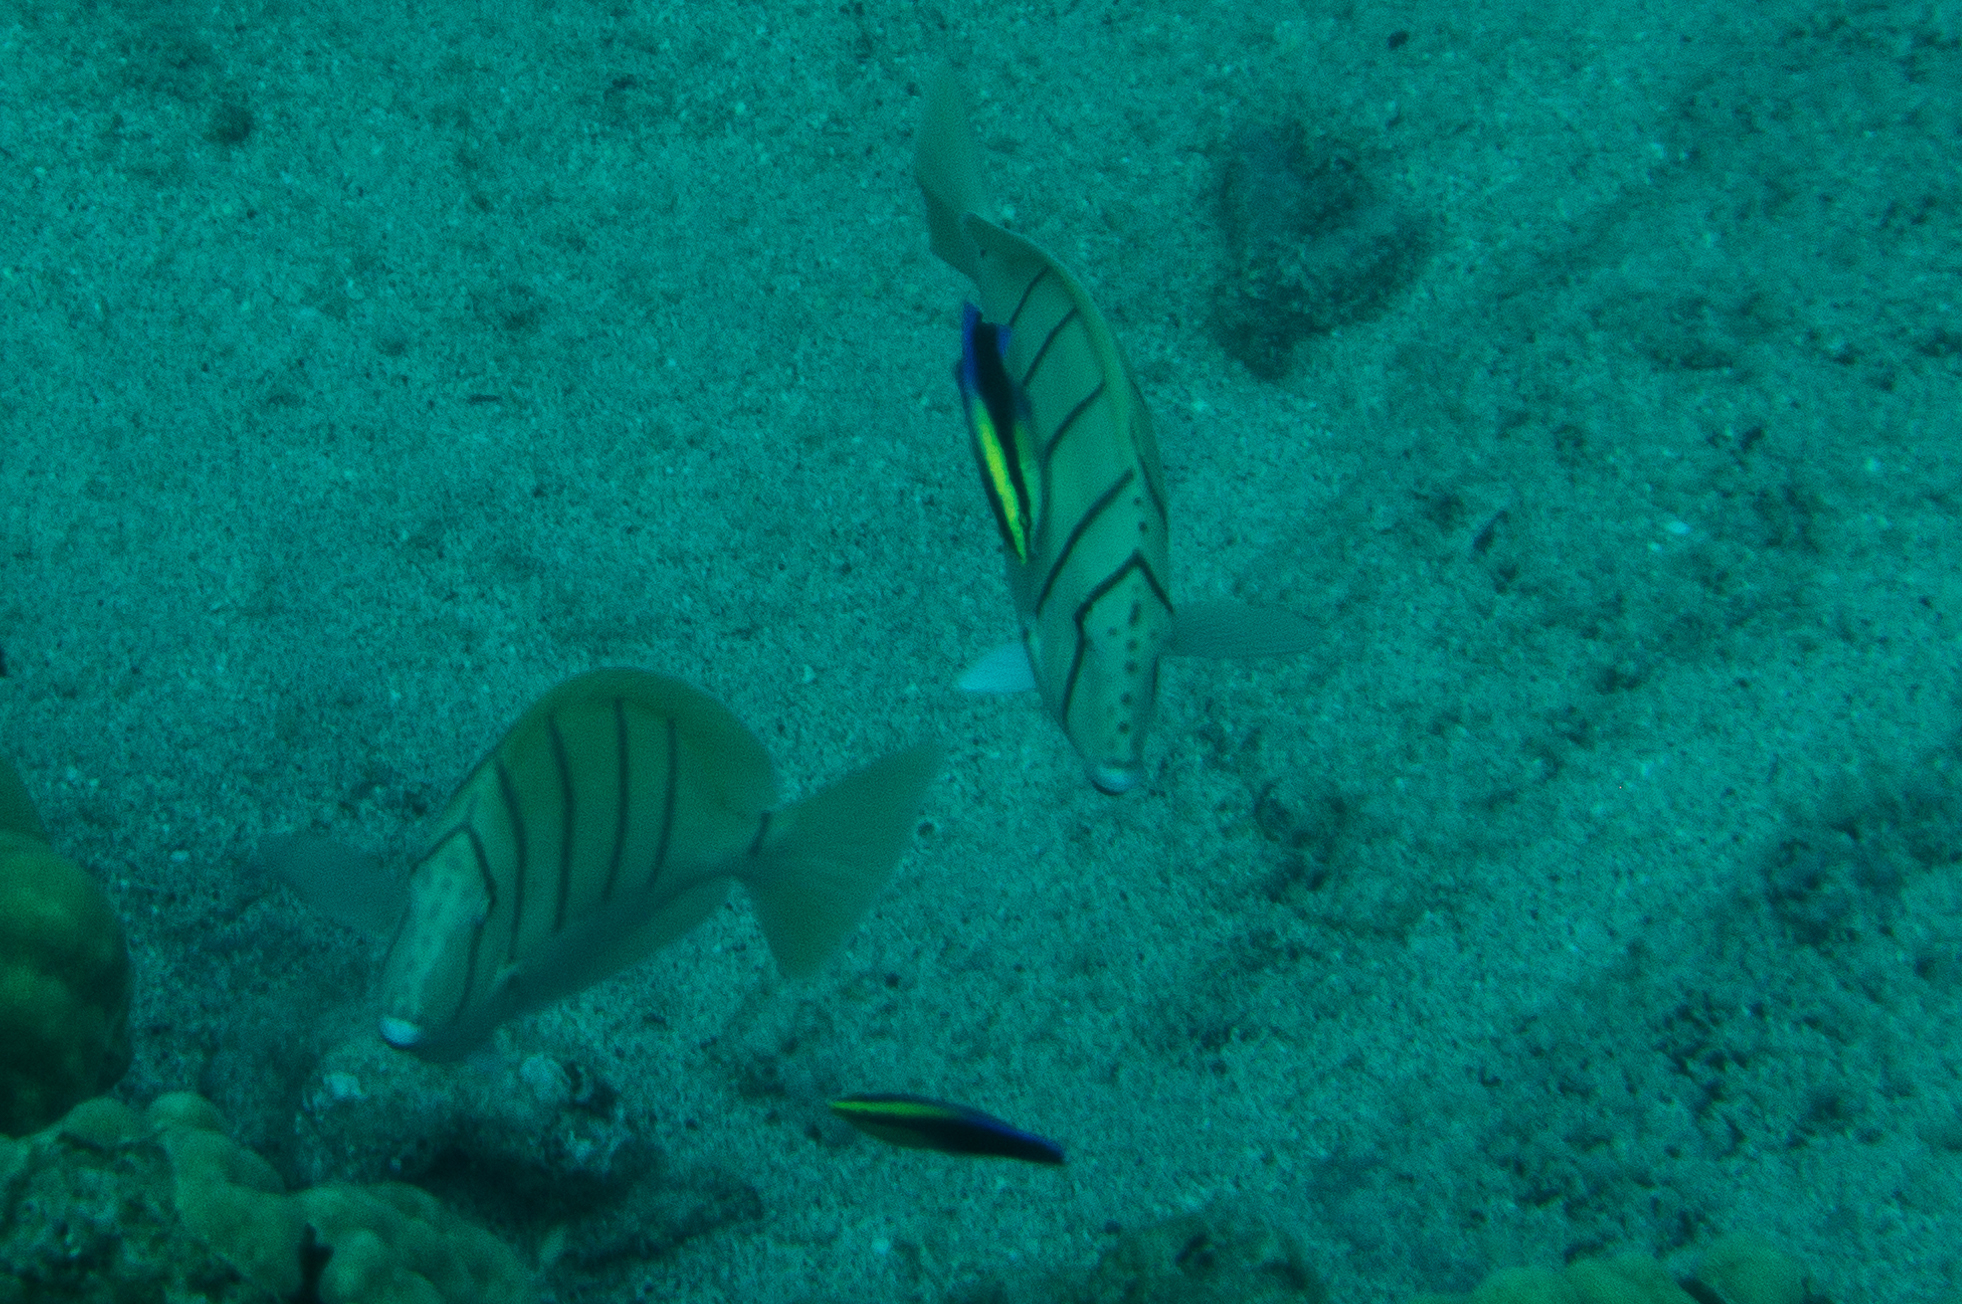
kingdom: Animalia
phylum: Chordata
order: Perciformes
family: Acanthuridae
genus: Acanthurus
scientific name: Acanthurus triostegus
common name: Convict surgeonfish
